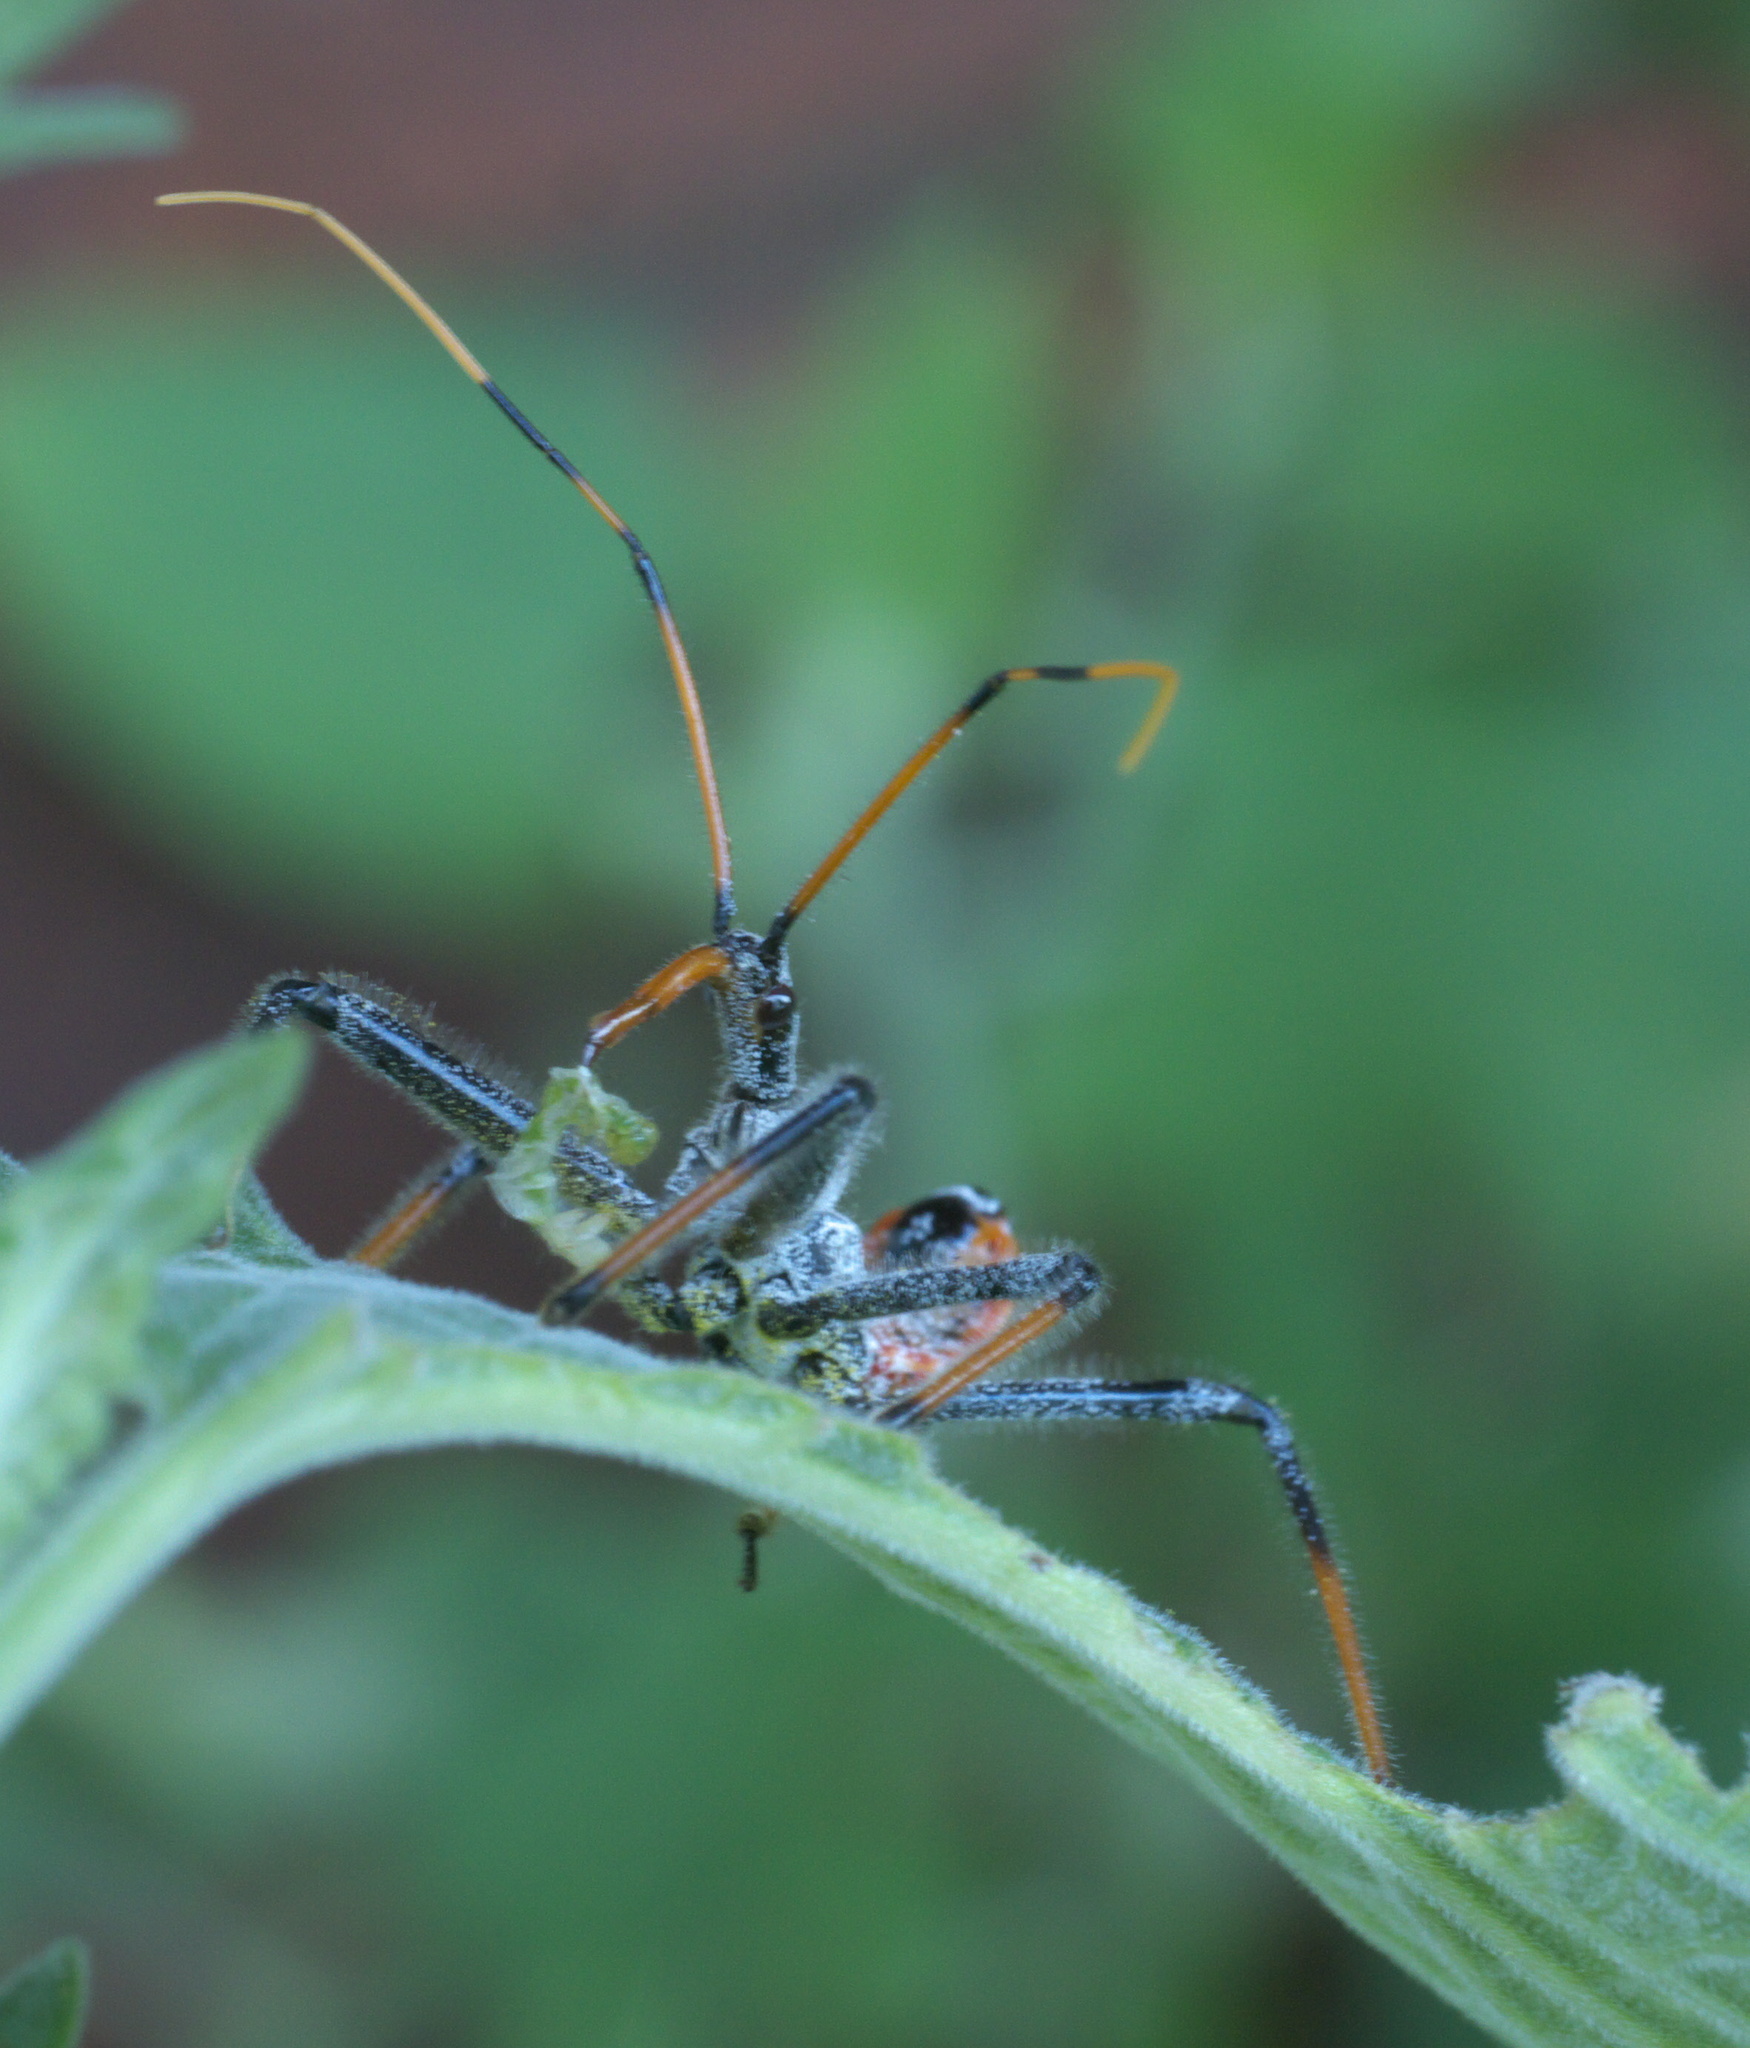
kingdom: Animalia
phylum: Arthropoda
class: Insecta
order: Hemiptera
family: Reduviidae
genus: Arilus
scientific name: Arilus cristatus
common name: North american wheel bug
